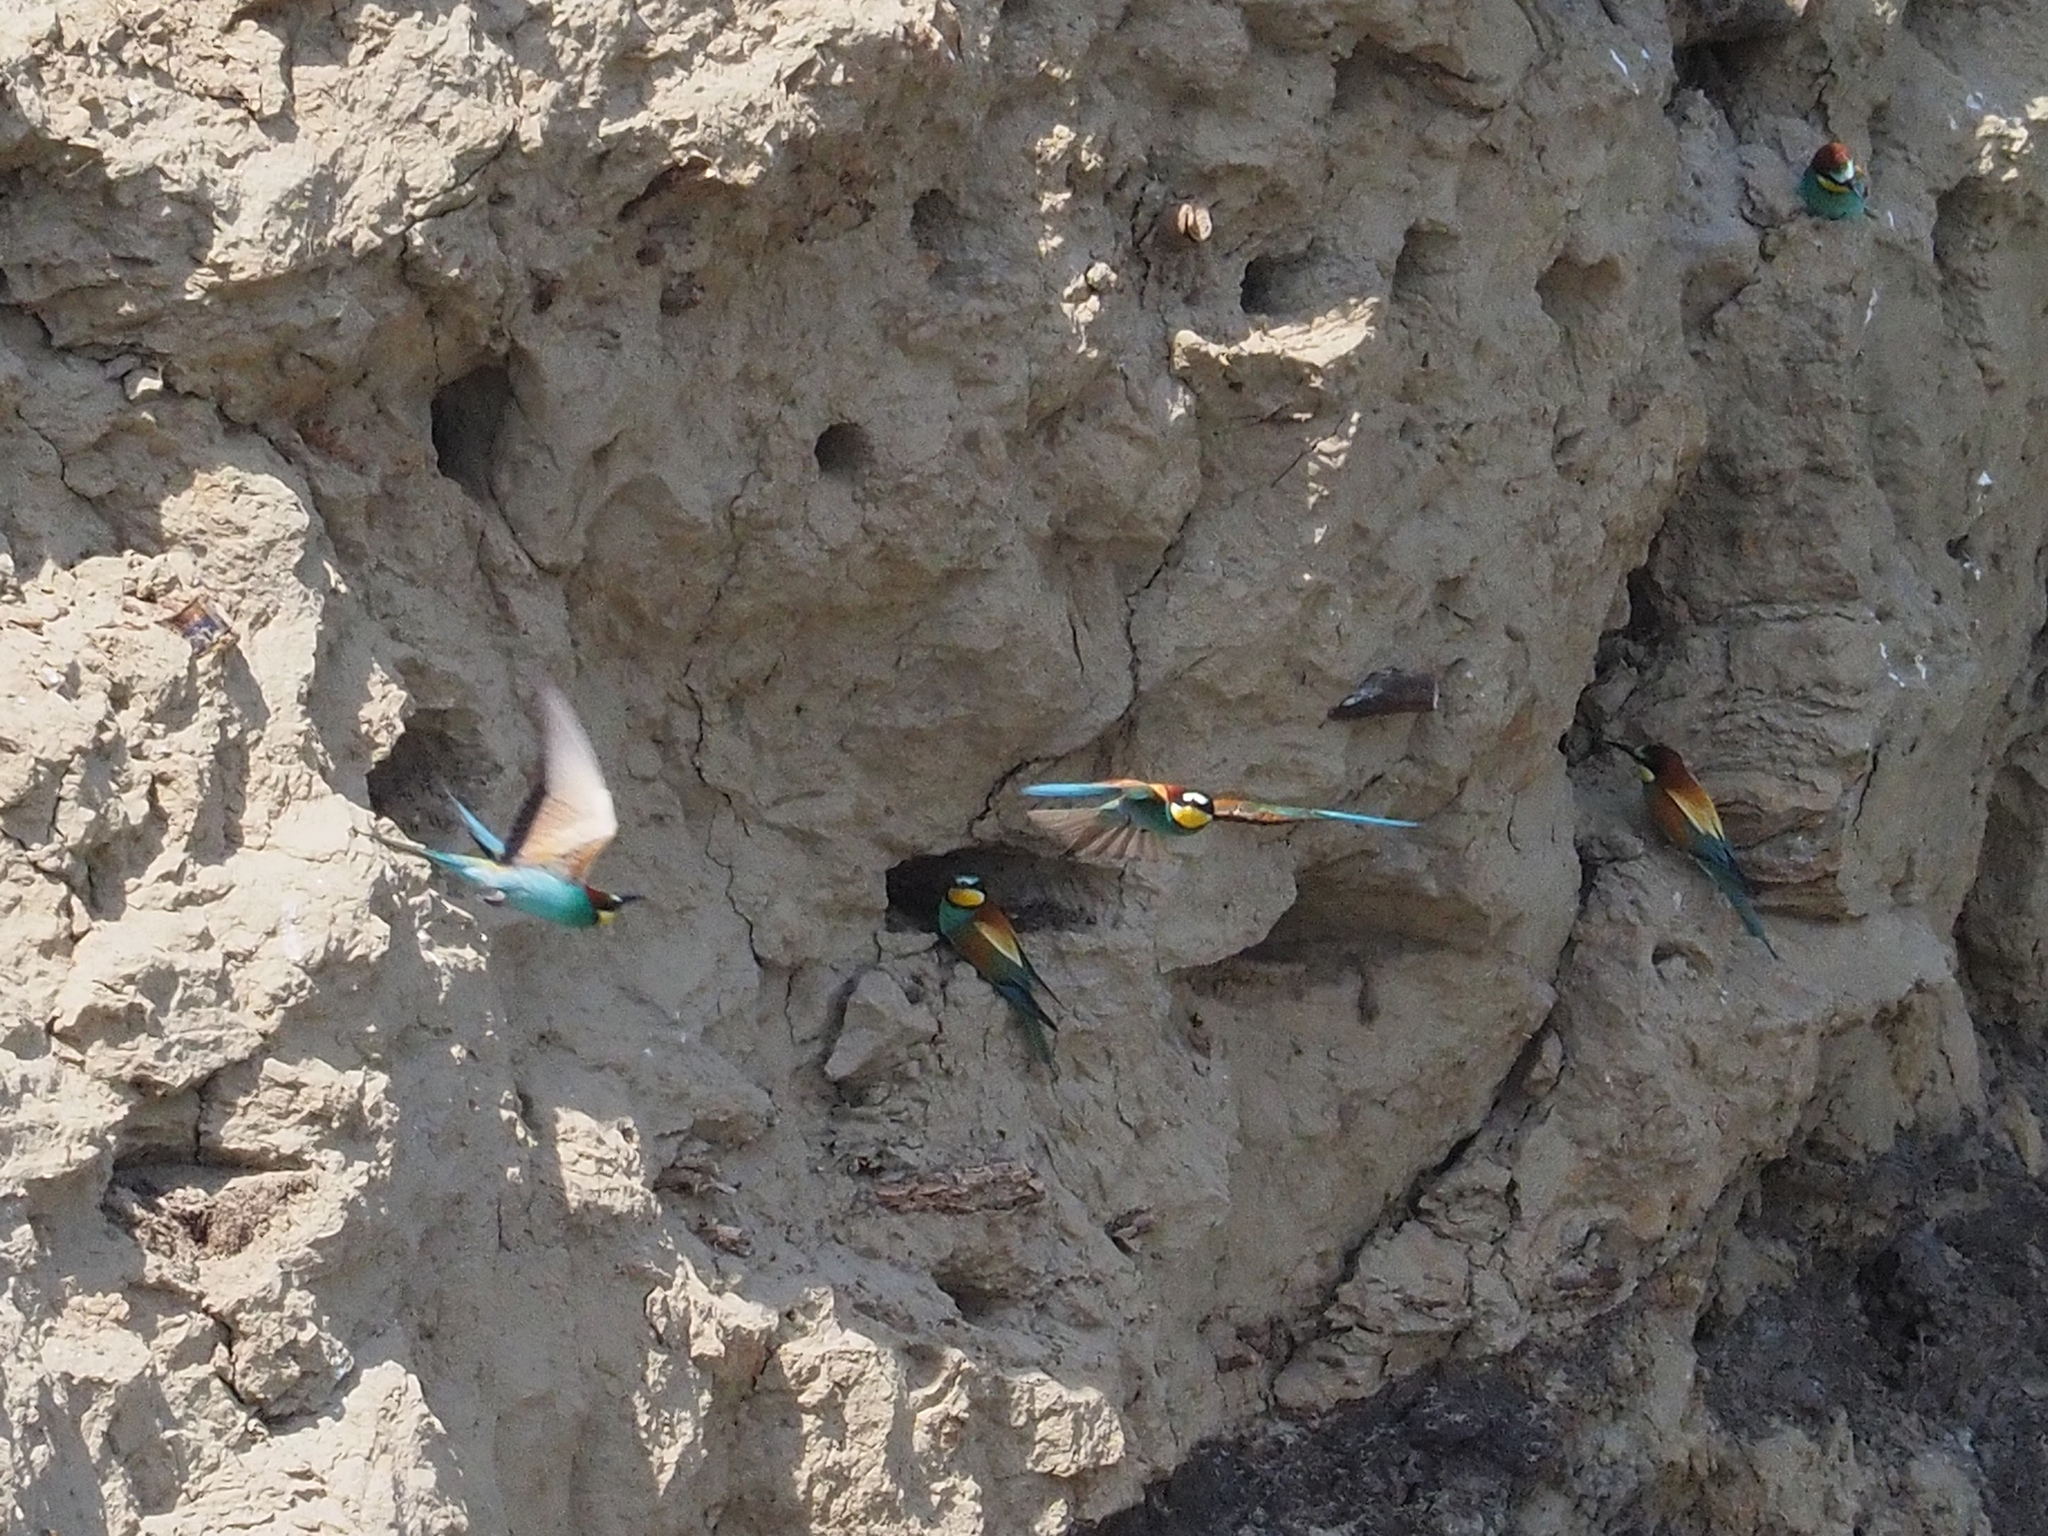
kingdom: Animalia
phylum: Chordata
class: Aves
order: Coraciiformes
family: Meropidae
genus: Merops
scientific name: Merops apiaster
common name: European bee-eater
